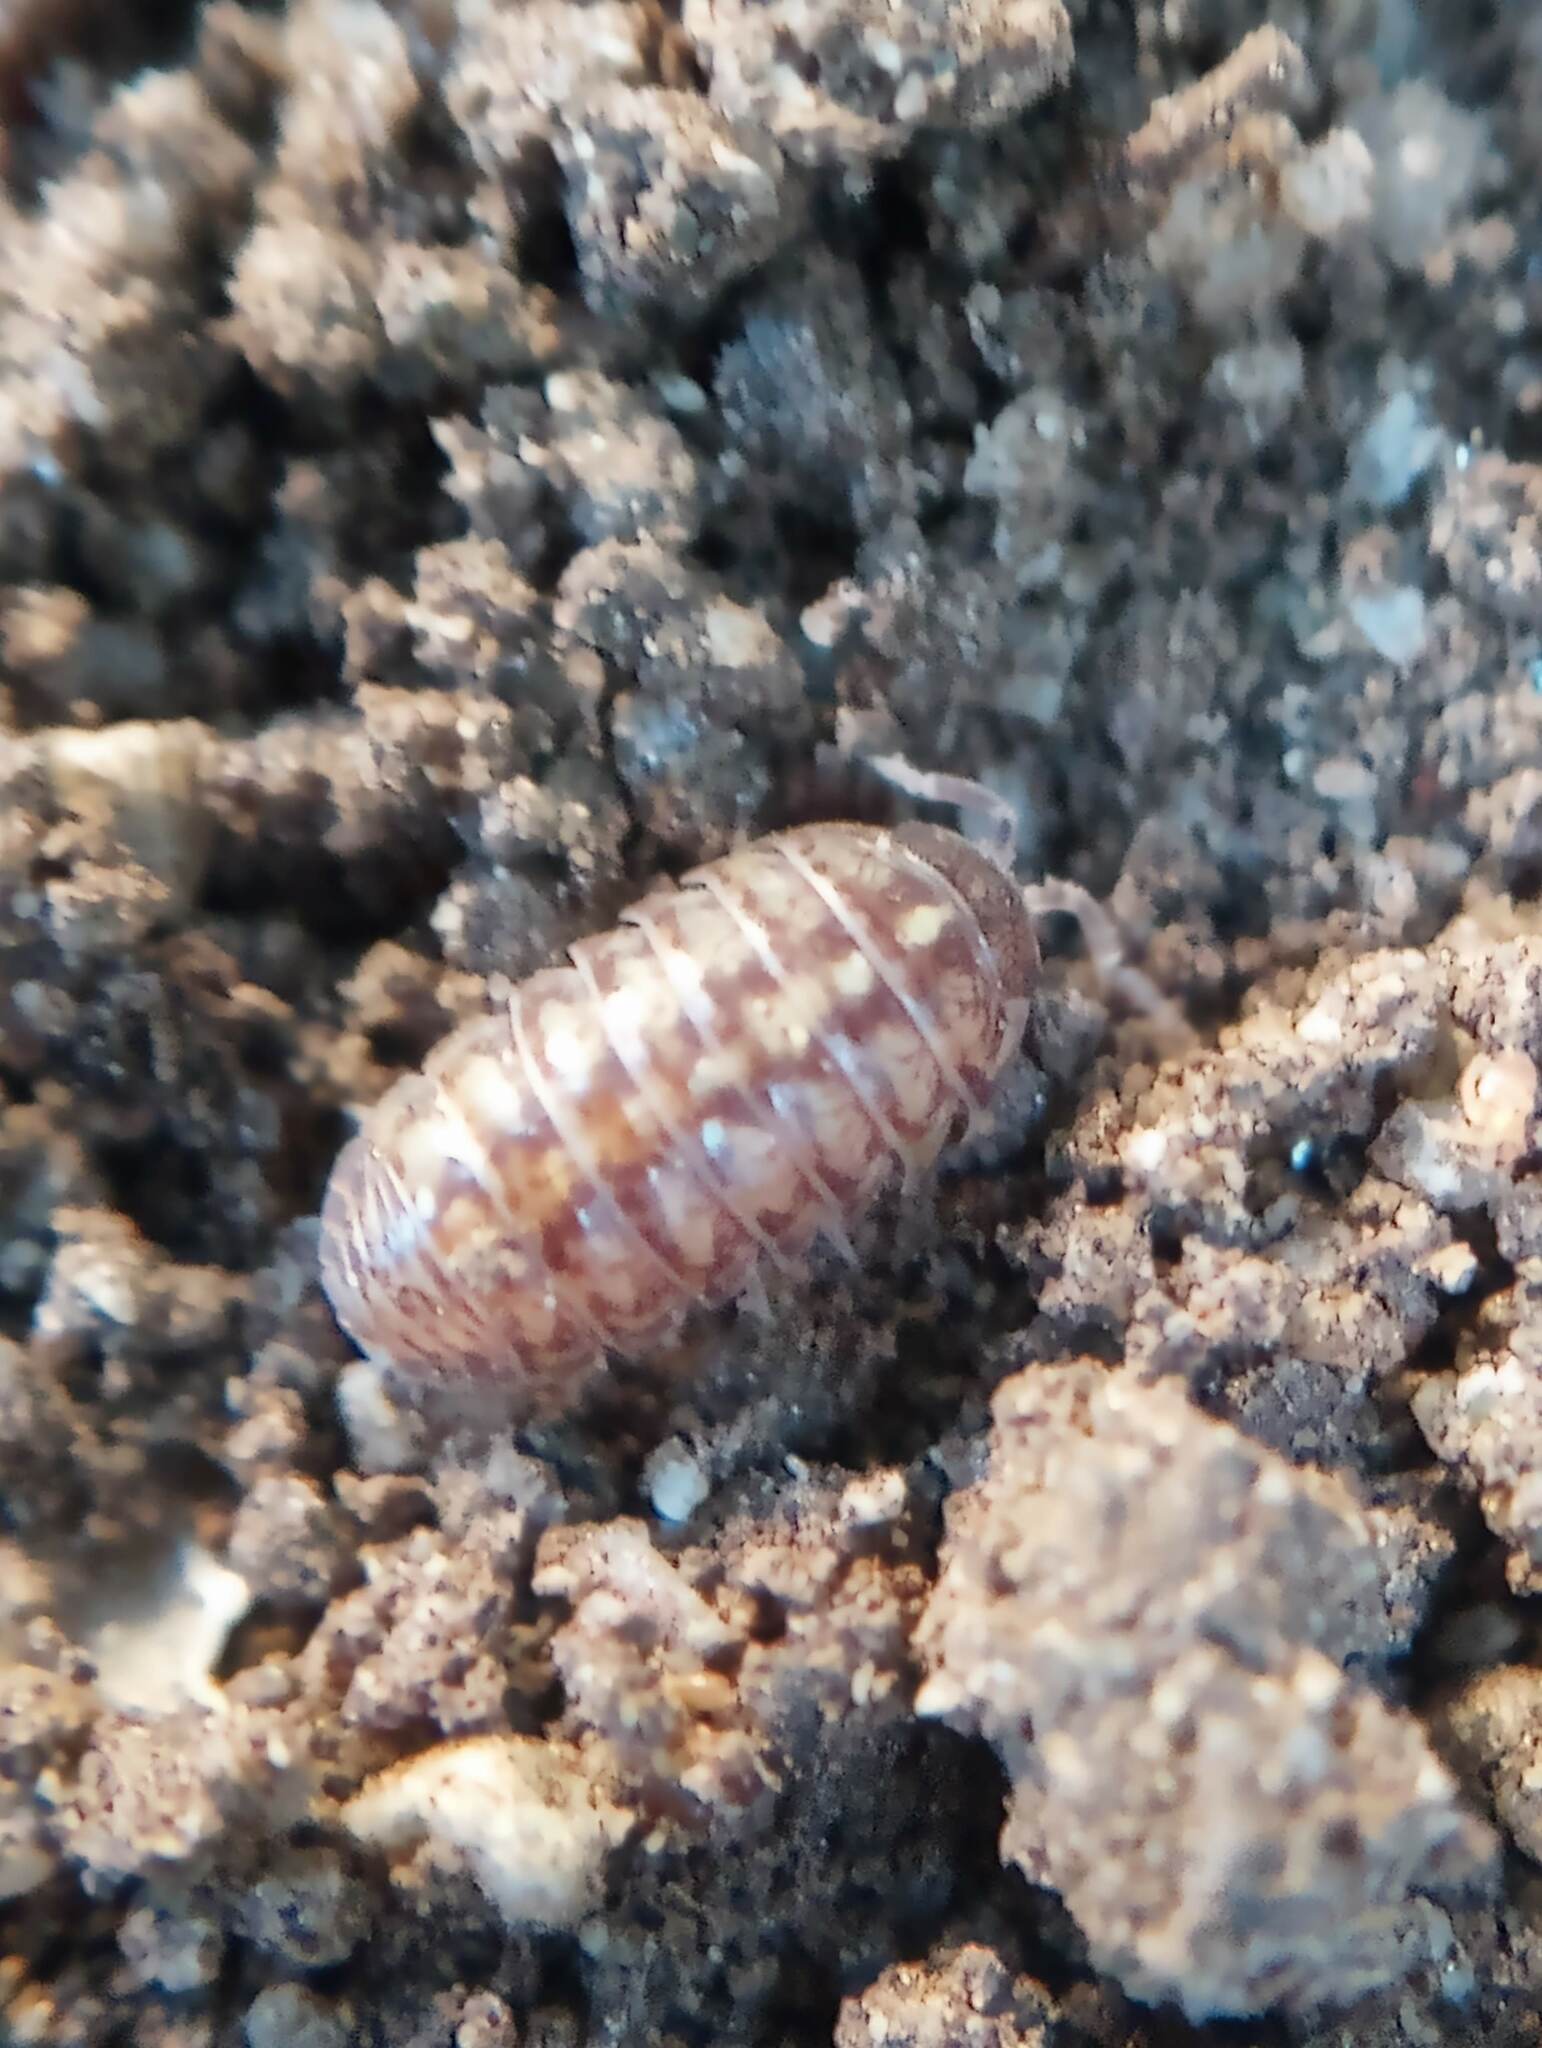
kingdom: Animalia
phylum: Arthropoda
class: Malacostraca
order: Isopoda
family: Armadillidiidae
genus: Armadillidium
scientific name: Armadillidium vulgare
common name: Common pill woodlouse
